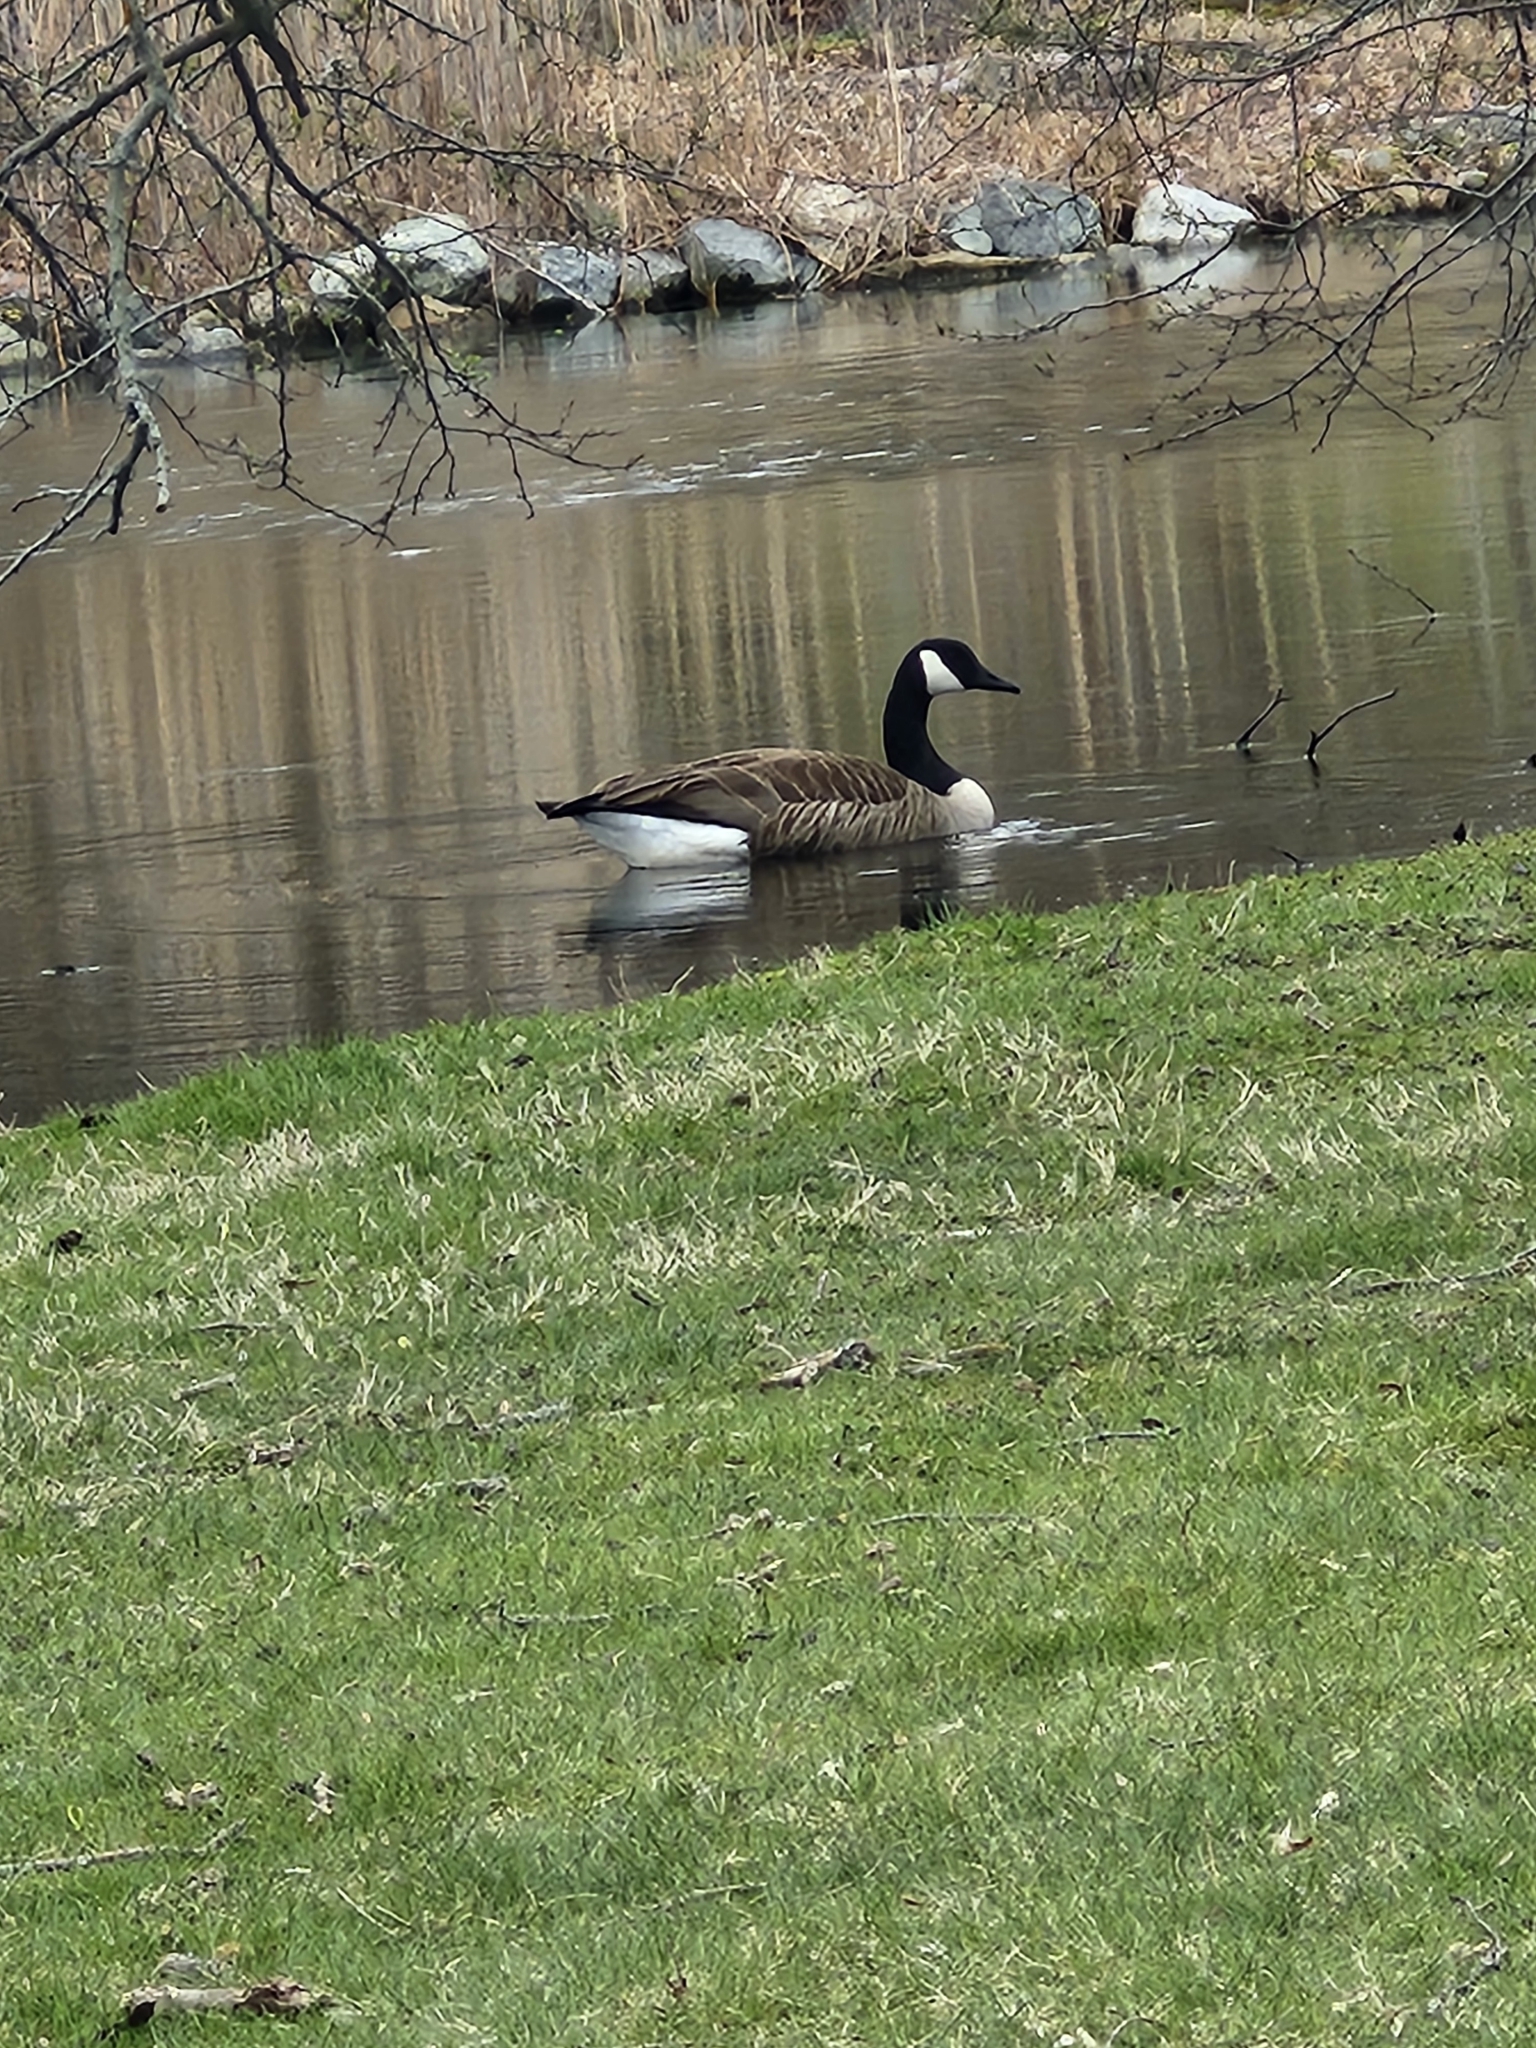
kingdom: Animalia
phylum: Chordata
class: Aves
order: Anseriformes
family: Anatidae
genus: Branta
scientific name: Branta canadensis
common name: Canada goose
